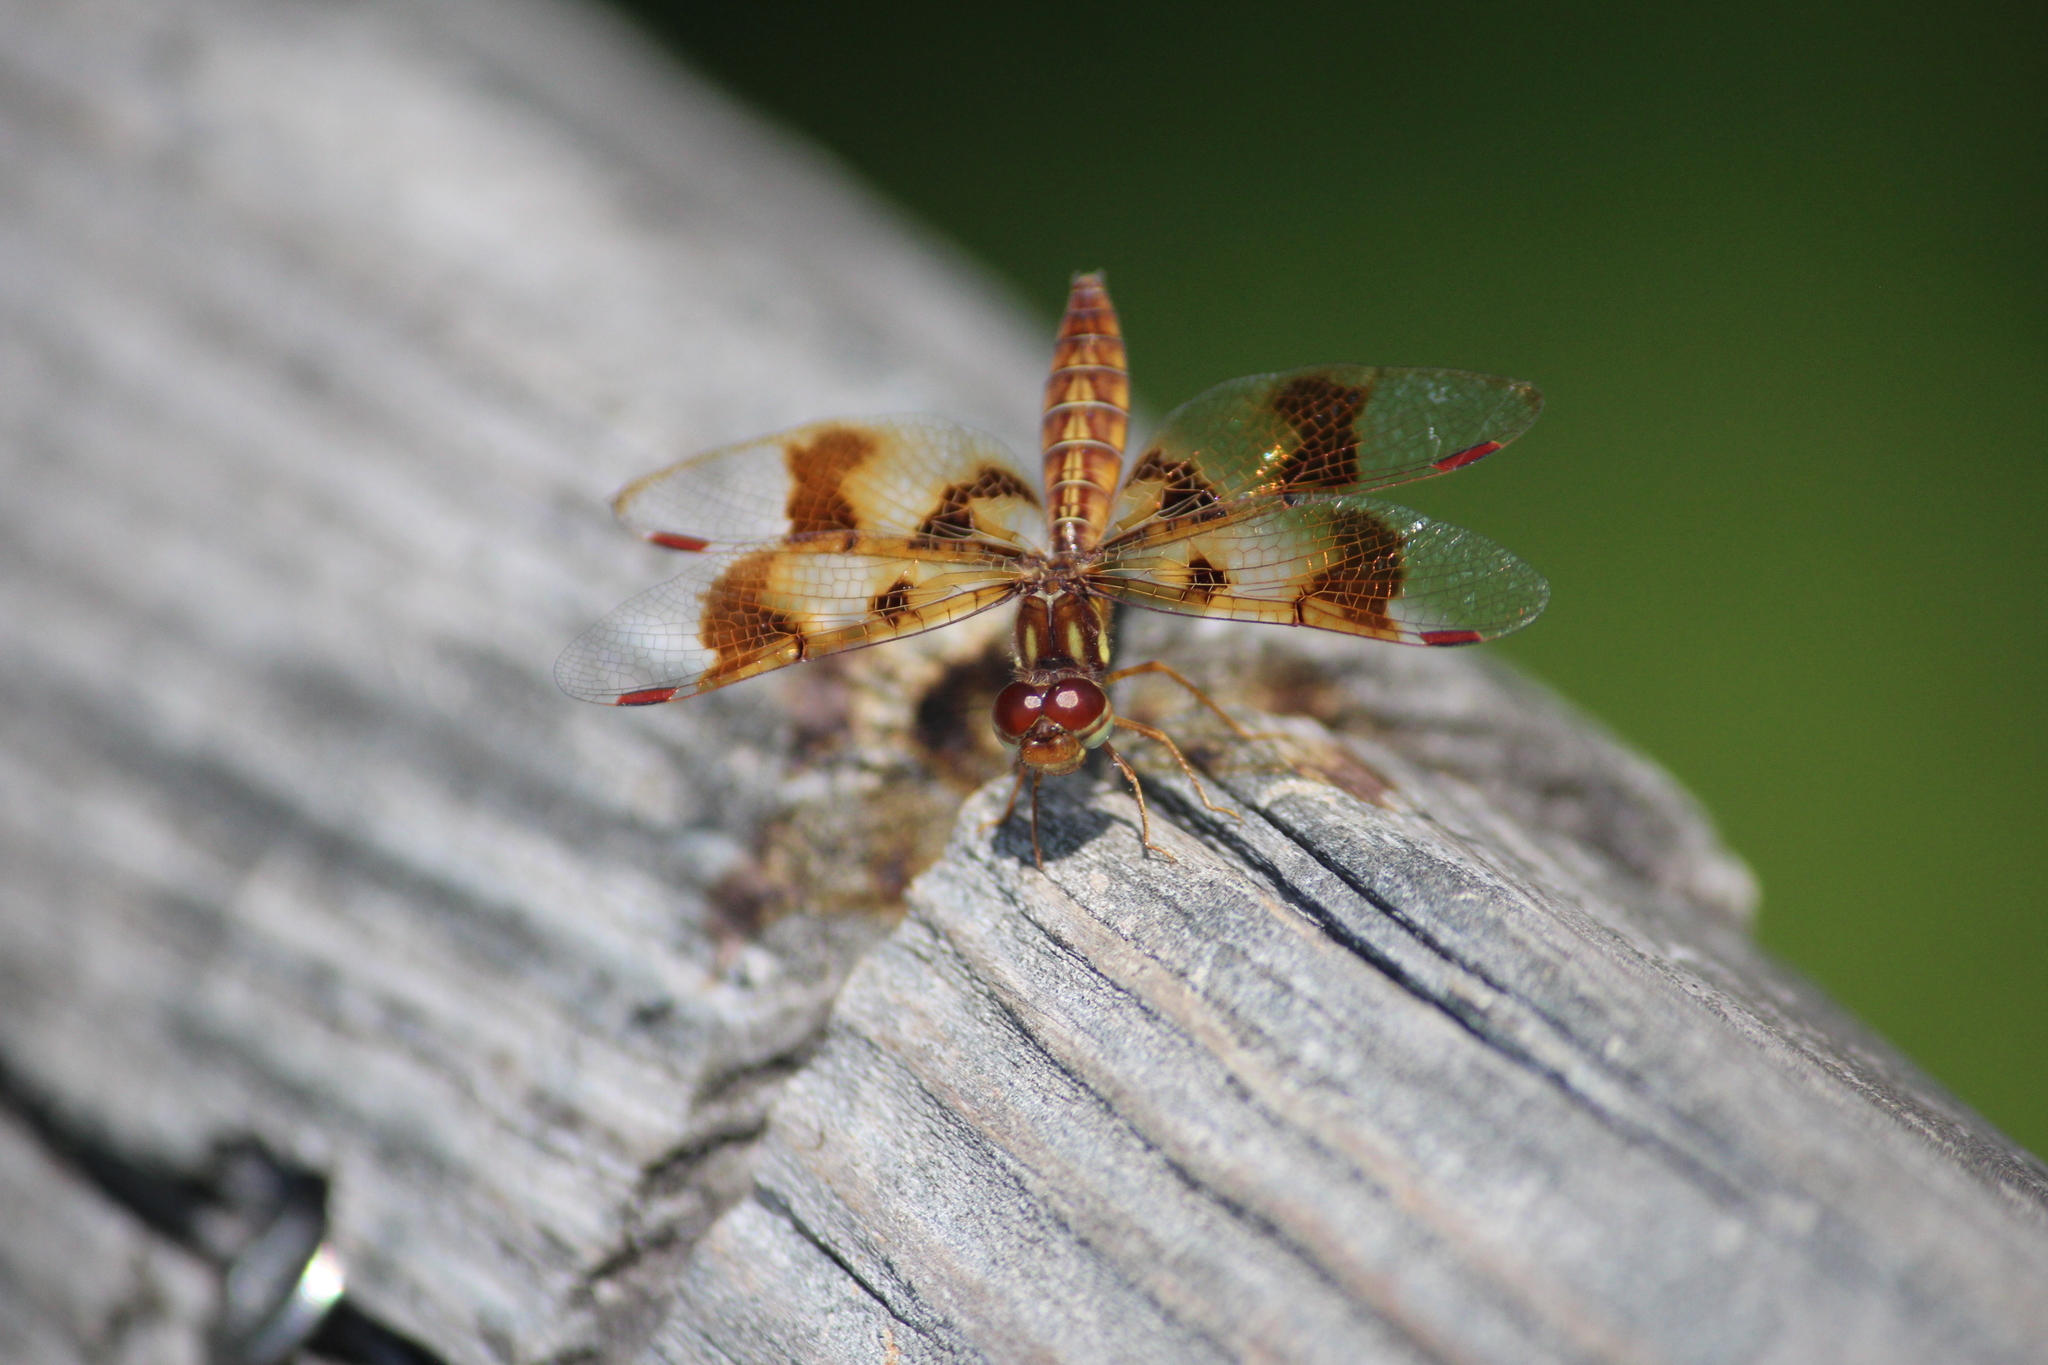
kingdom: Animalia
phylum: Arthropoda
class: Insecta
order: Odonata
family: Libellulidae
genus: Perithemis
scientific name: Perithemis tenera
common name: Eastern amberwing
